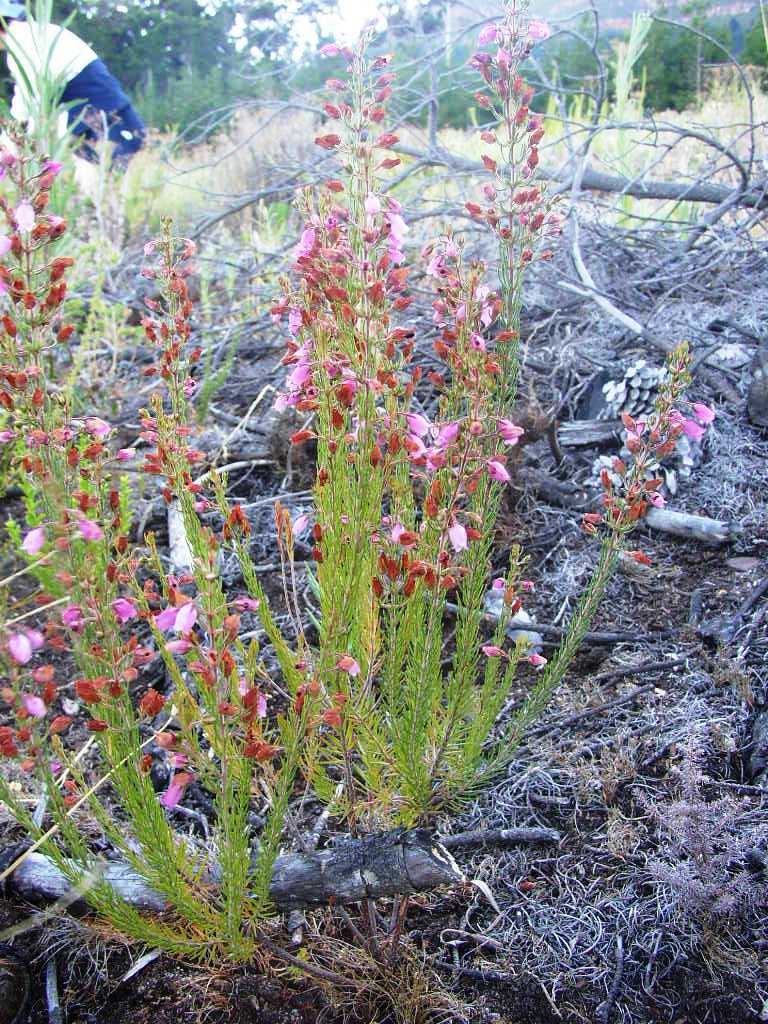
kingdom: Plantae
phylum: Tracheophyta
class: Magnoliopsida
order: Ericales
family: Ericaceae
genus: Erica
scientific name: Erica viscaria
